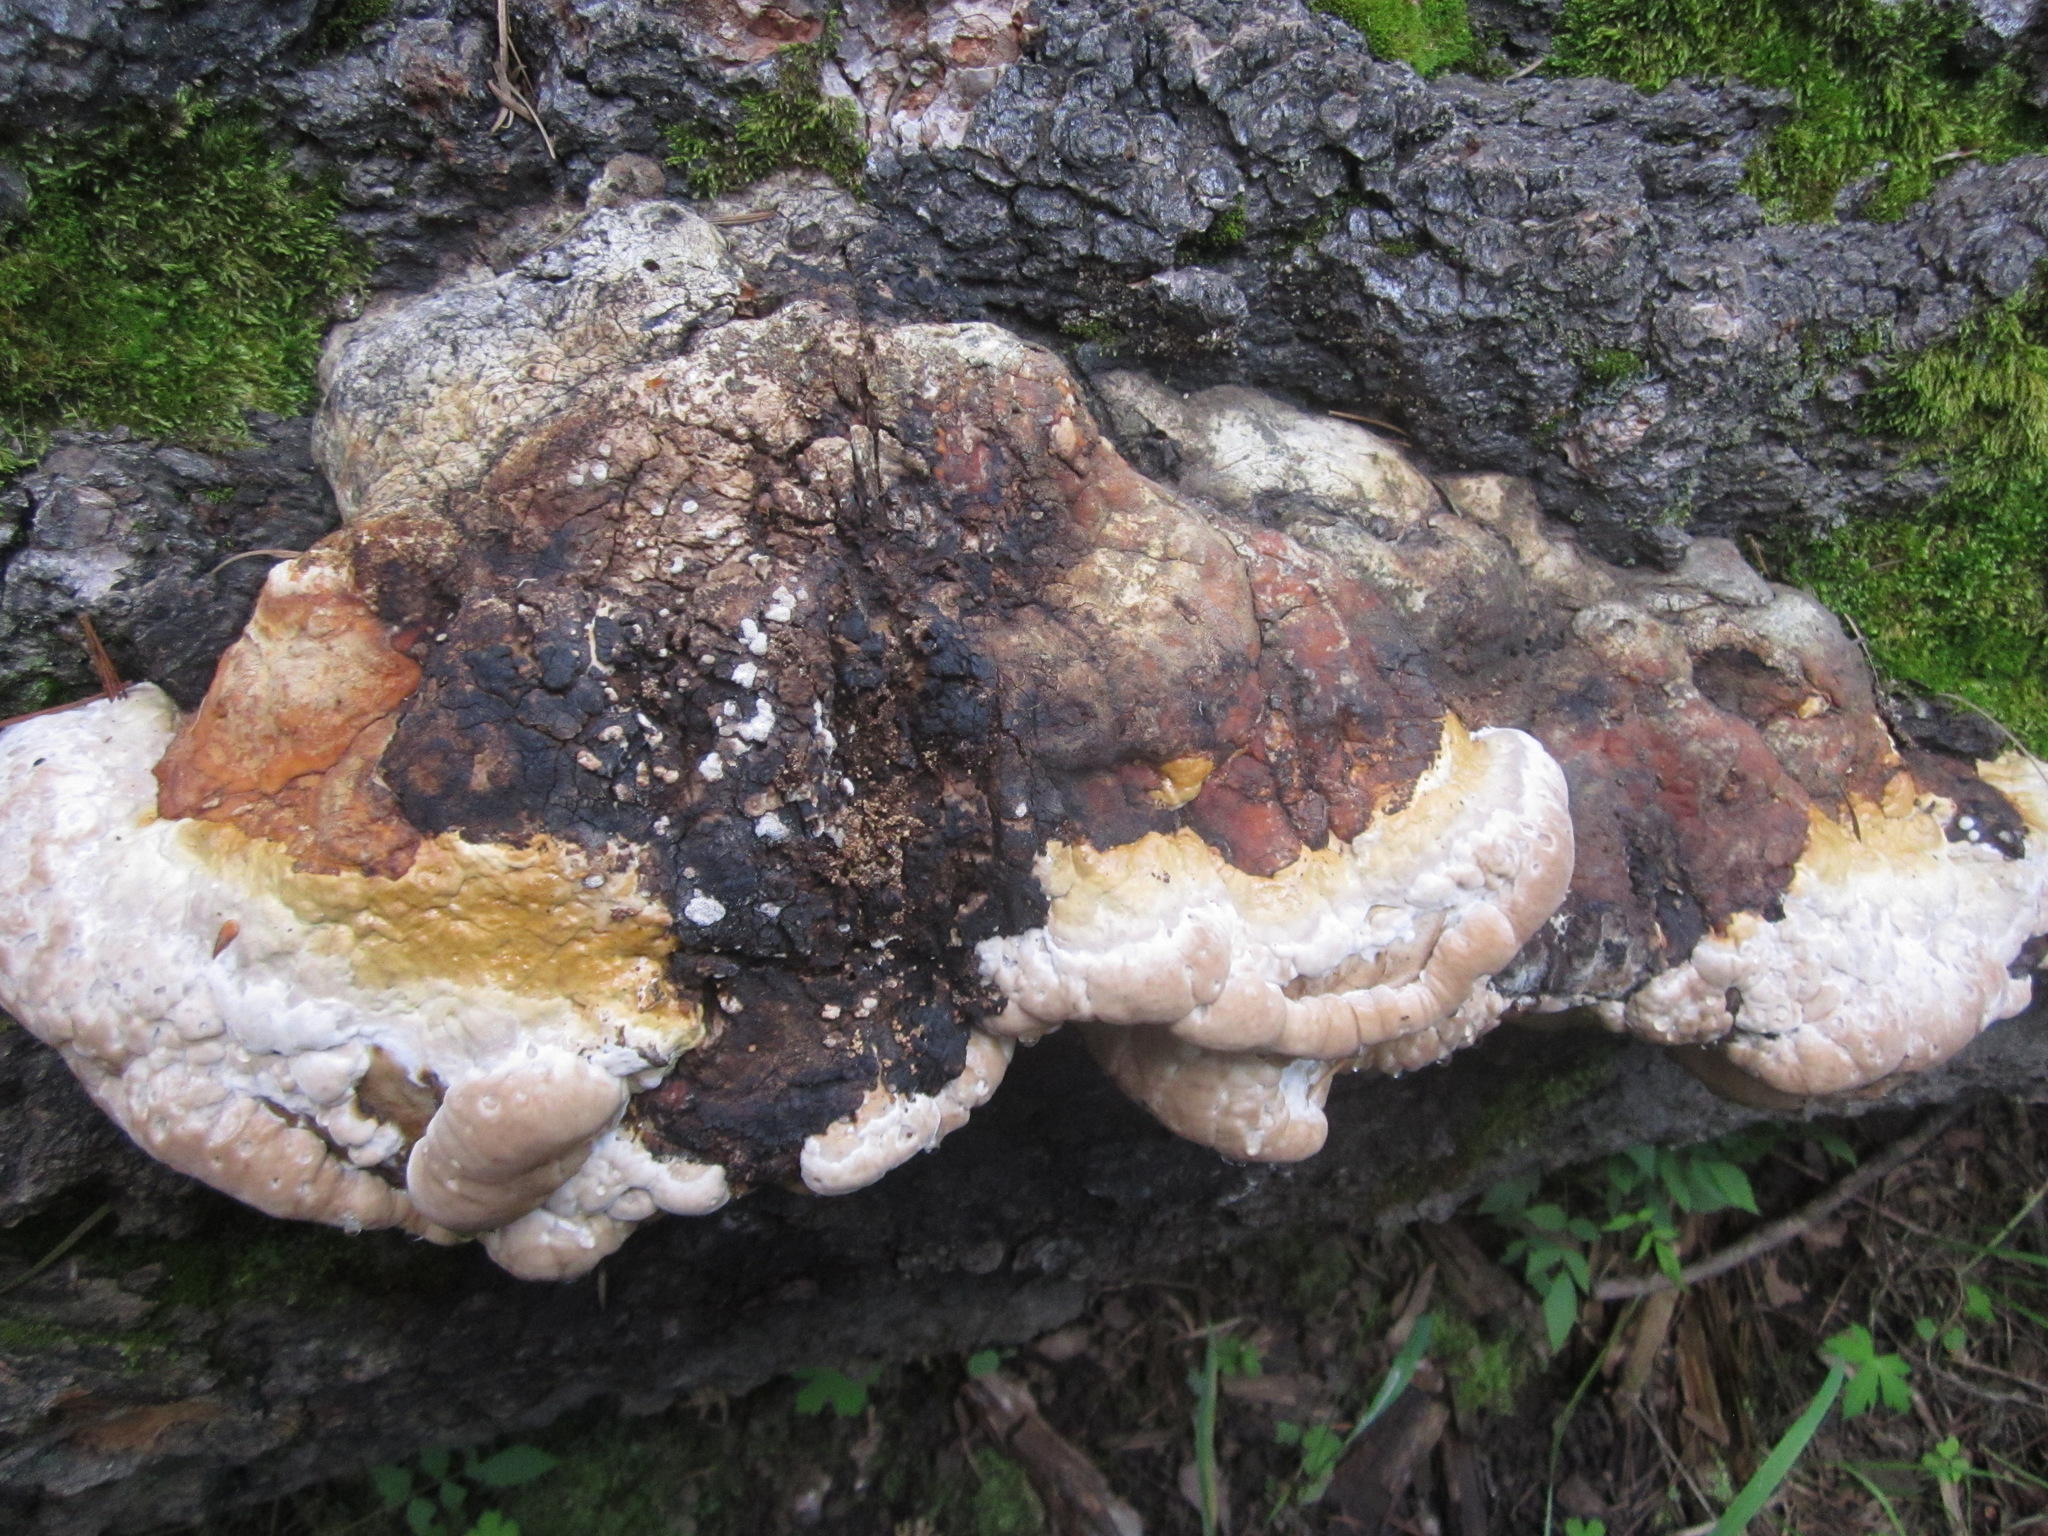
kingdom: Fungi
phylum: Basidiomycota
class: Agaricomycetes
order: Polyporales
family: Fomitopsidaceae
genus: Fomitopsis
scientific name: Fomitopsis schrenkii
